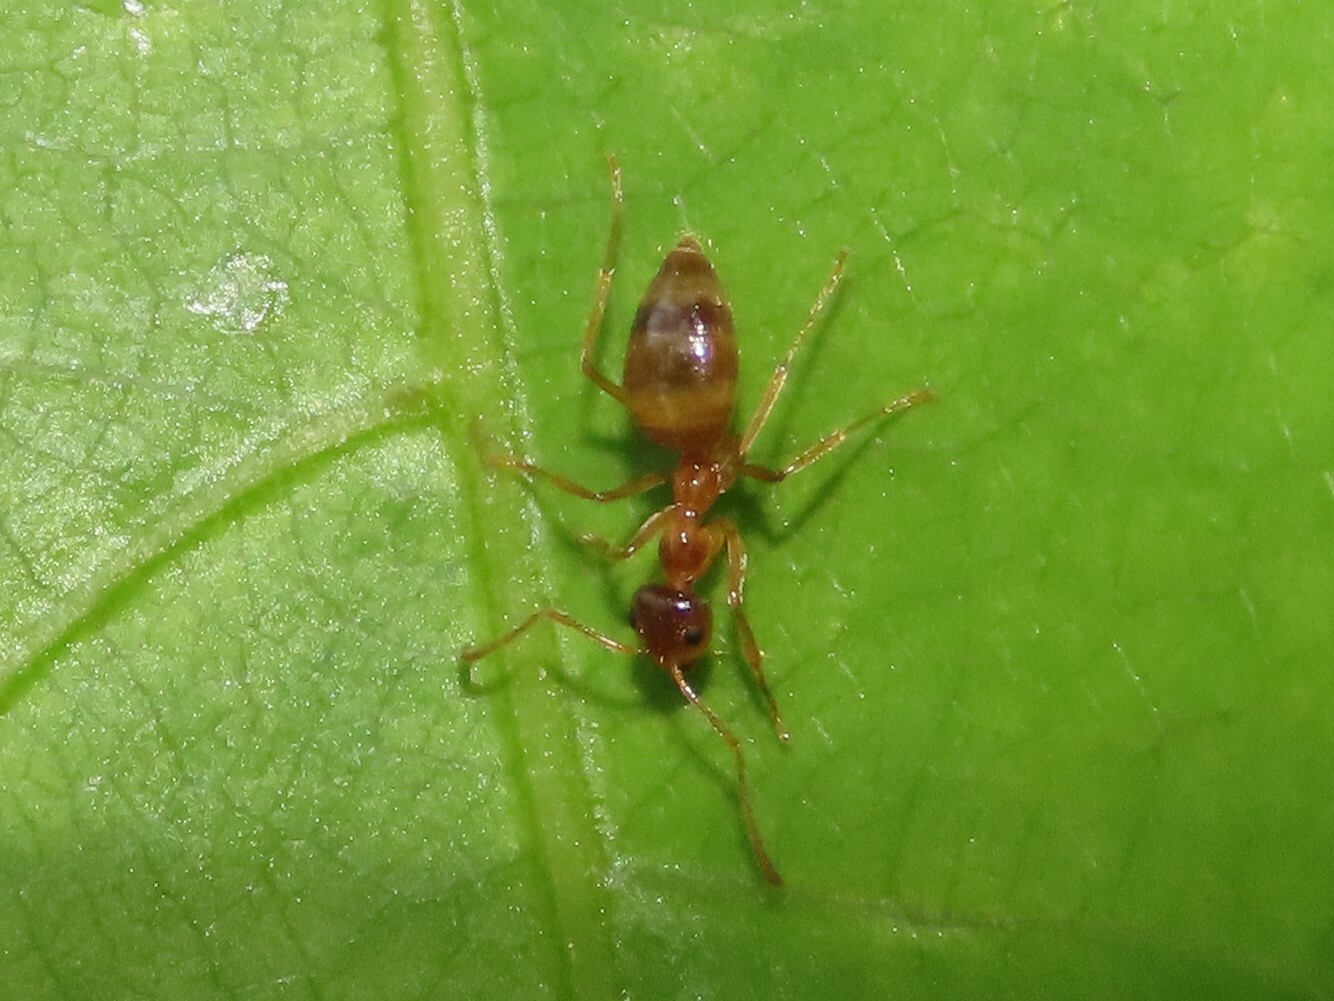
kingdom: Animalia
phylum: Arthropoda
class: Insecta
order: Hymenoptera
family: Formicidae
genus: Prenolepis
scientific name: Prenolepis imparis
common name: Small honey ant
